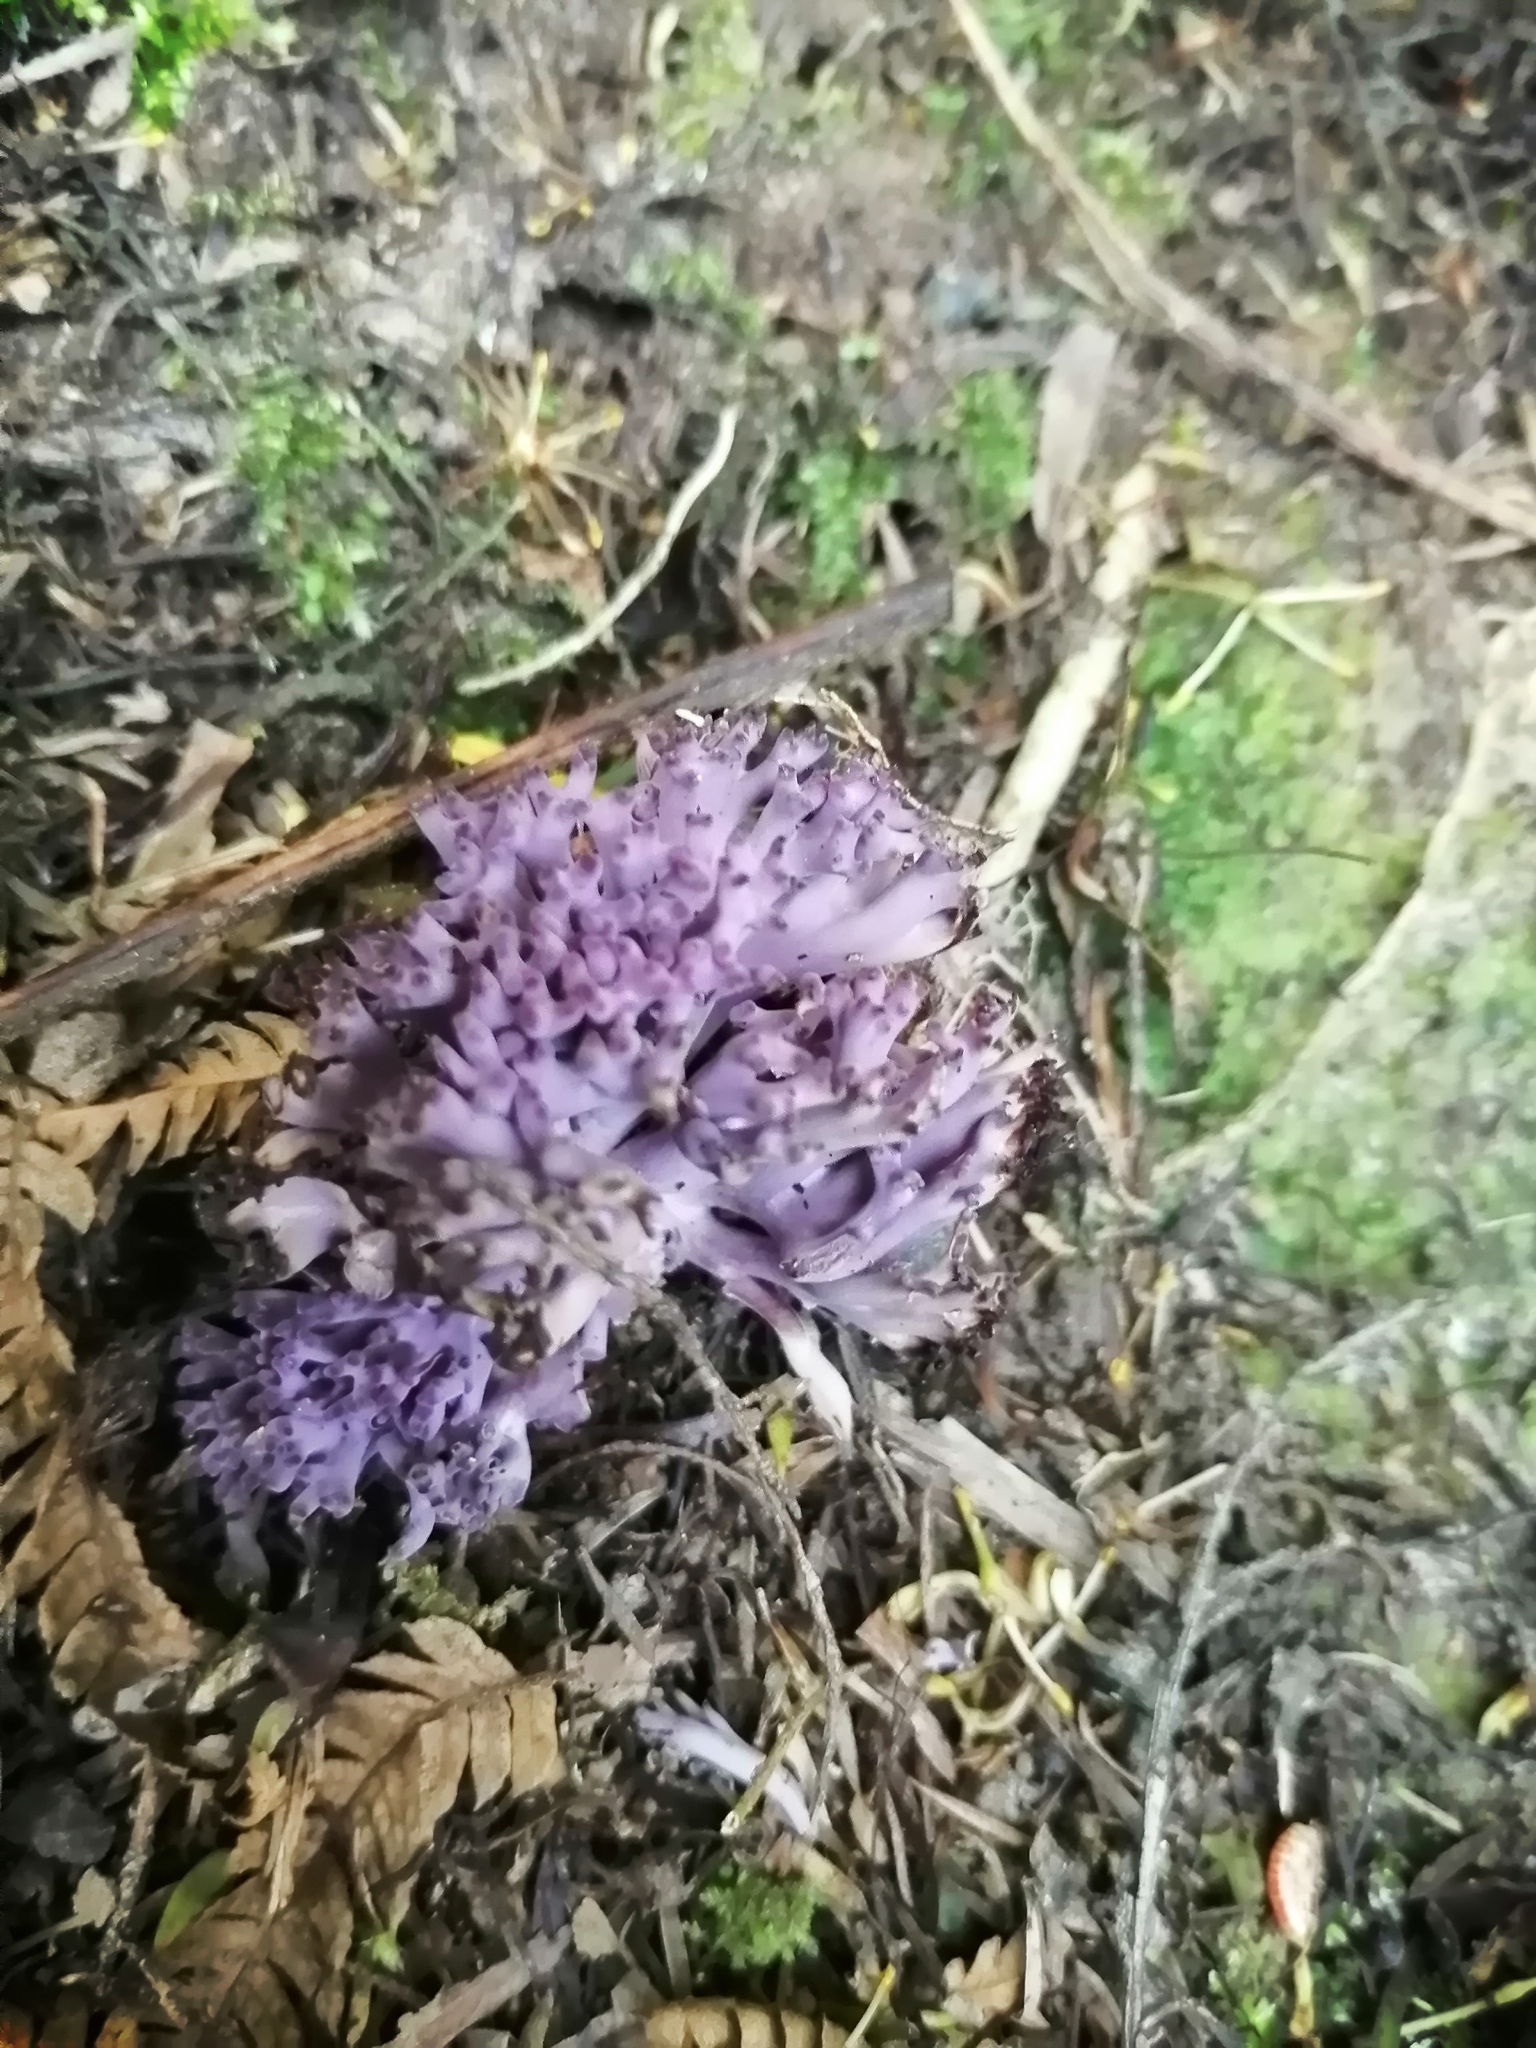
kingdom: Fungi
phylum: Basidiomycota
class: Agaricomycetes
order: Agaricales
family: Clavariaceae
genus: Ramariopsis
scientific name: Ramariopsis pulchella
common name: Lilac coral
